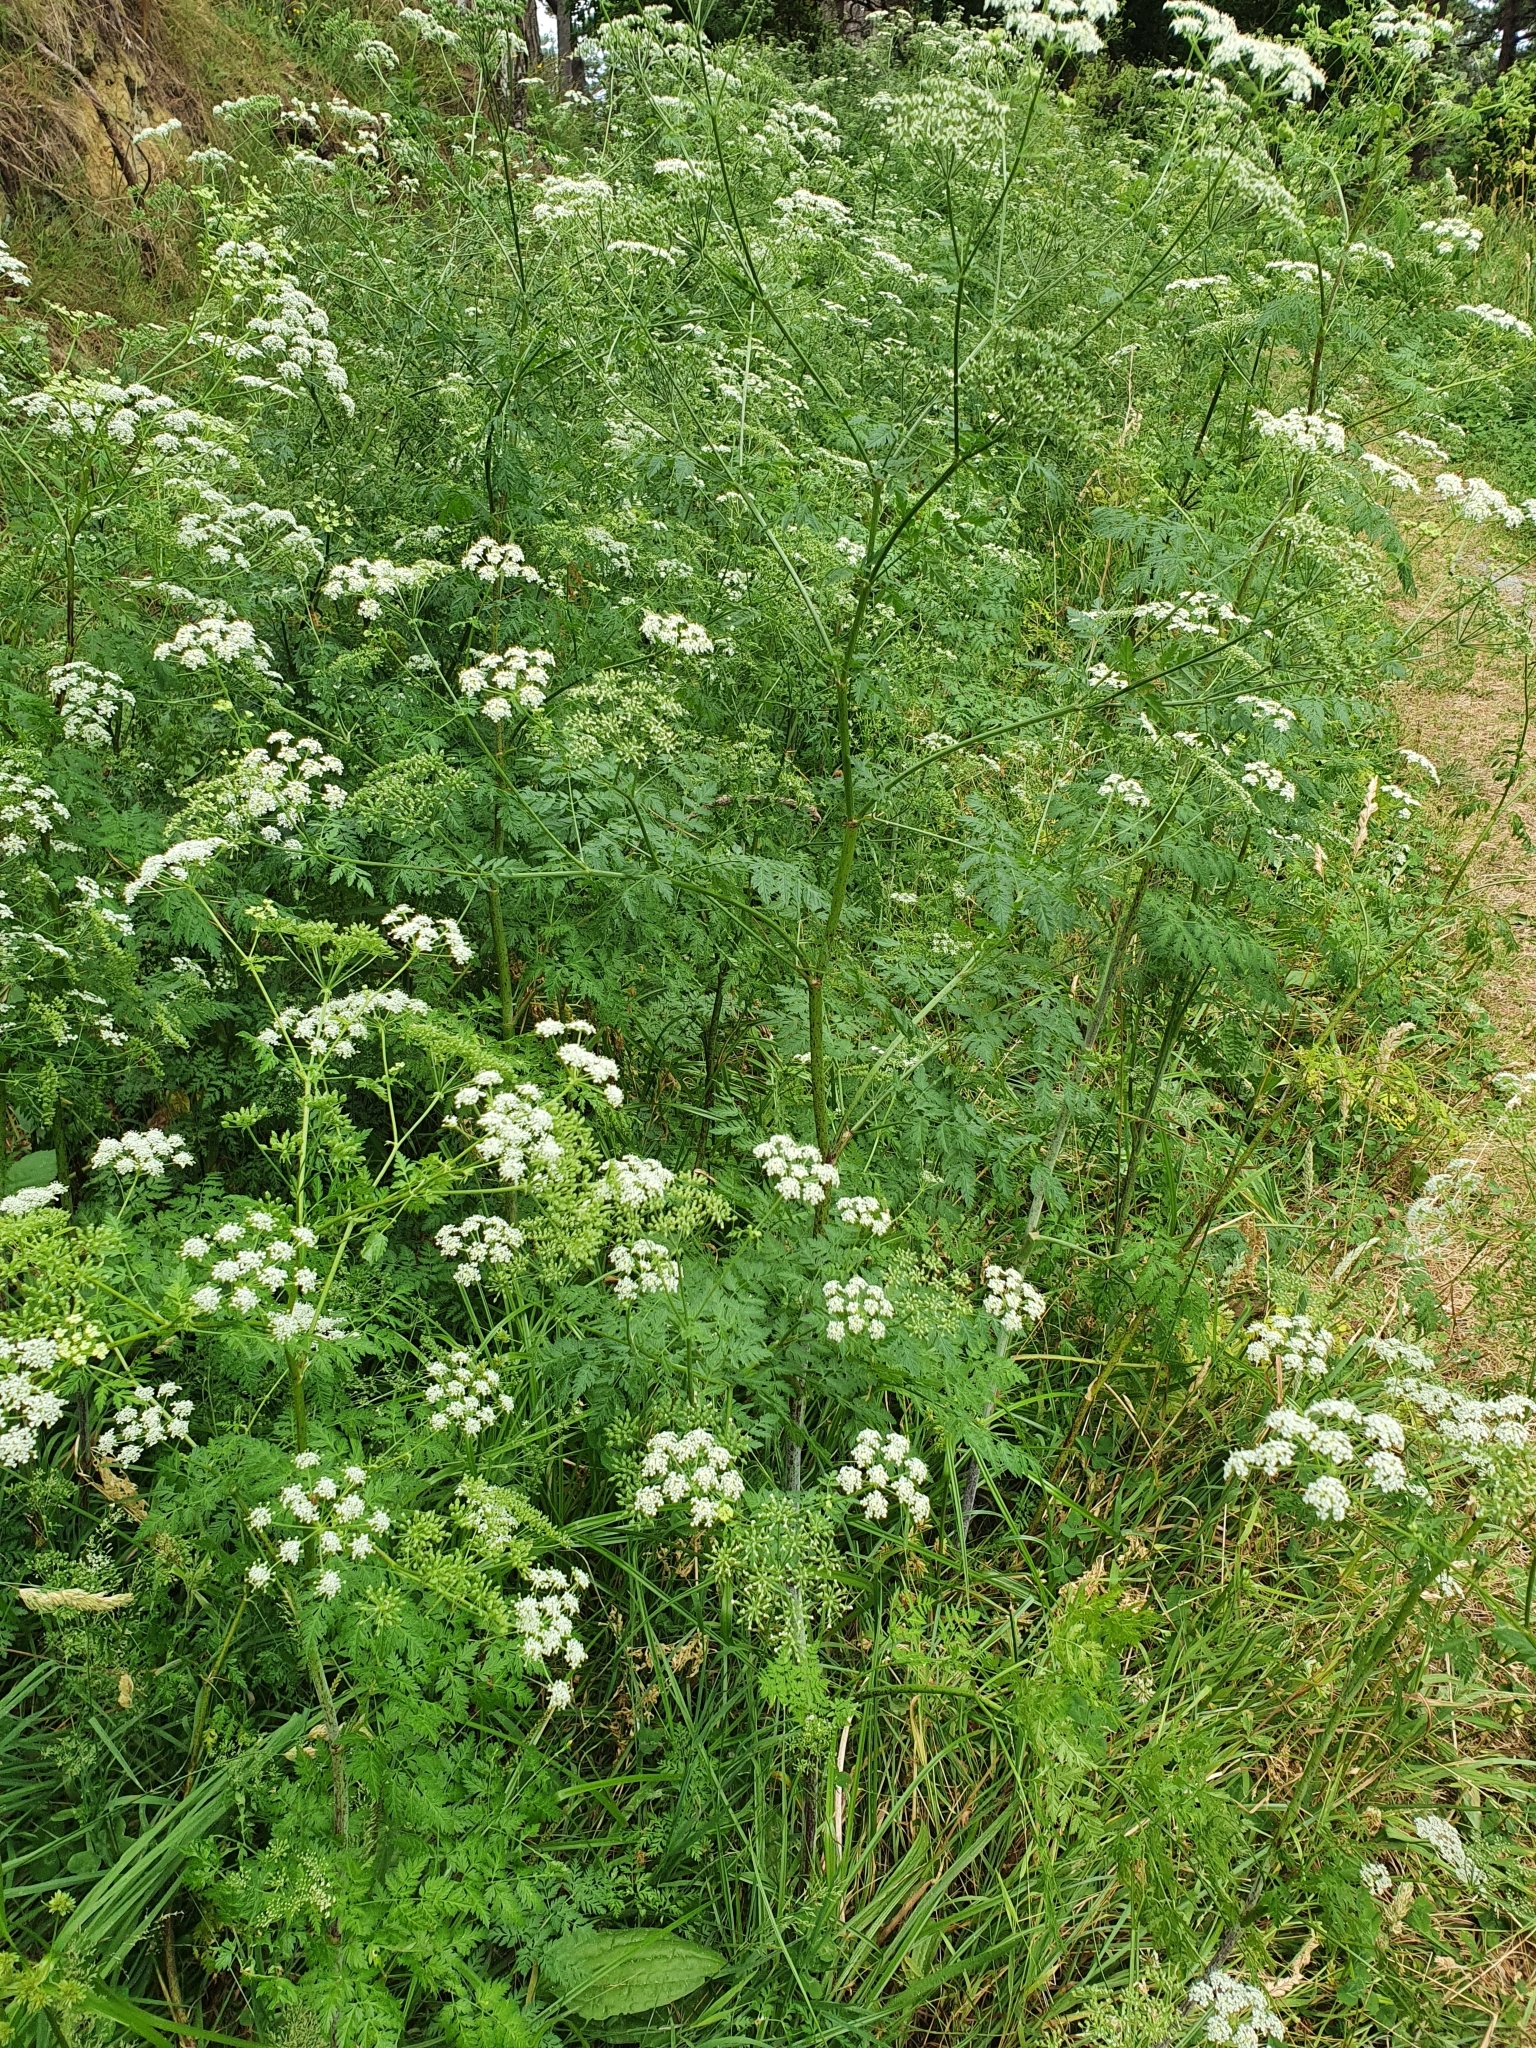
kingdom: Plantae
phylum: Tracheophyta
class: Magnoliopsida
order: Apiales
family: Apiaceae
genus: Conium
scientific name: Conium maculatum
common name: Hemlock
